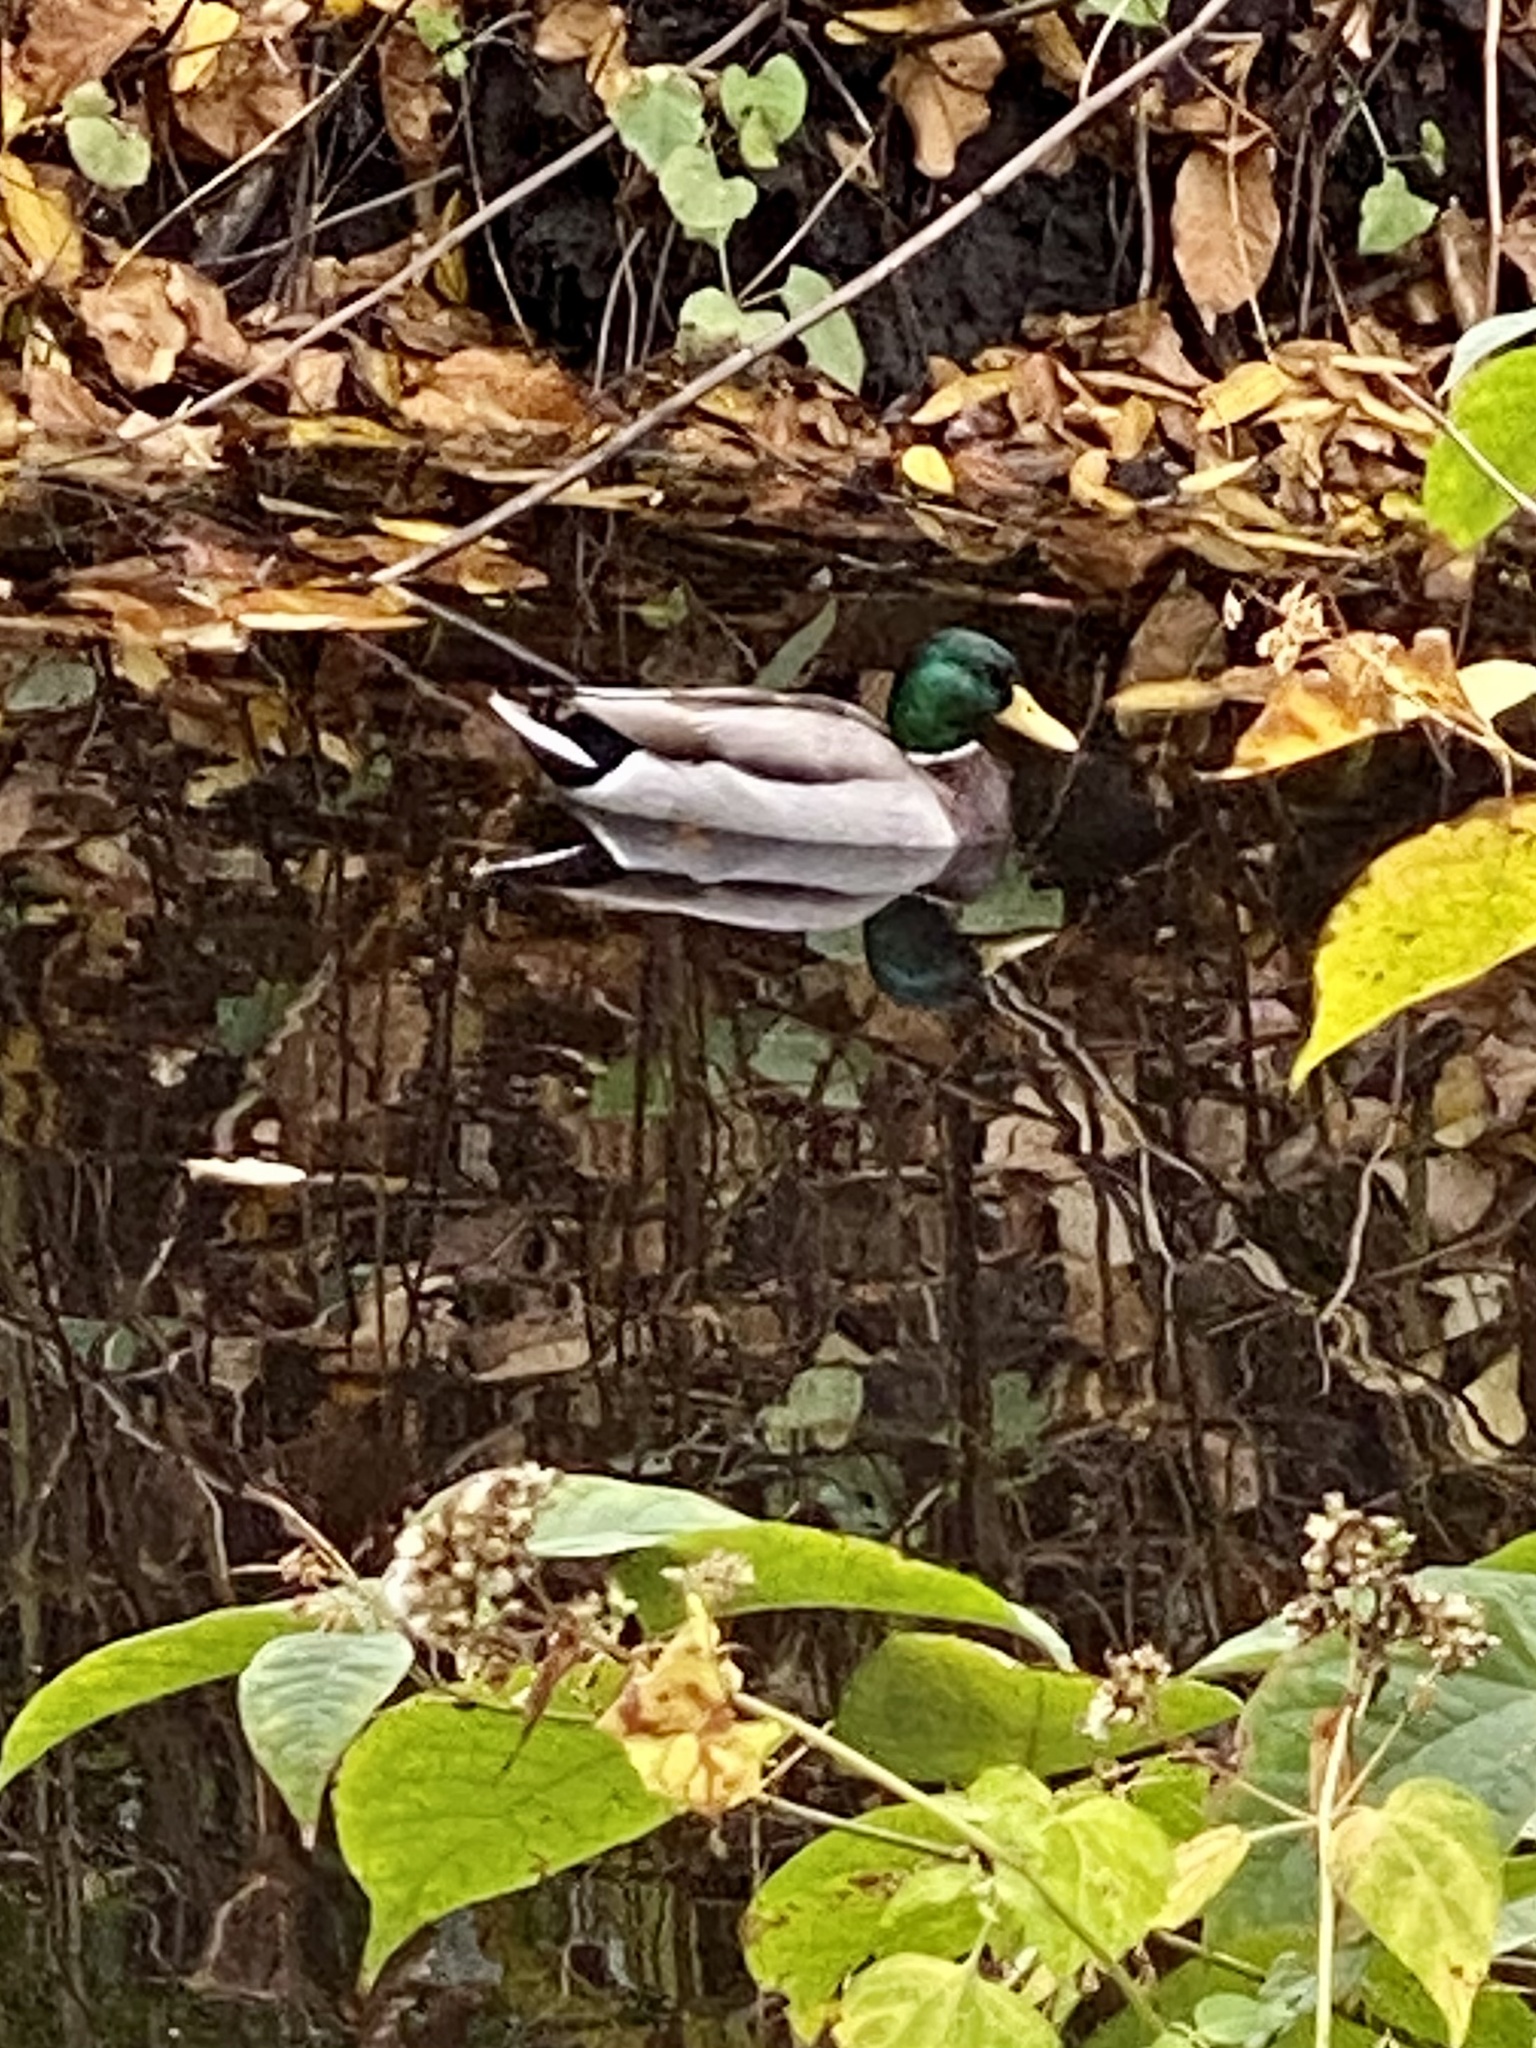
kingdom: Animalia
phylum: Chordata
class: Aves
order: Anseriformes
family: Anatidae
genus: Anas
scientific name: Anas platyrhynchos
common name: Mallard
